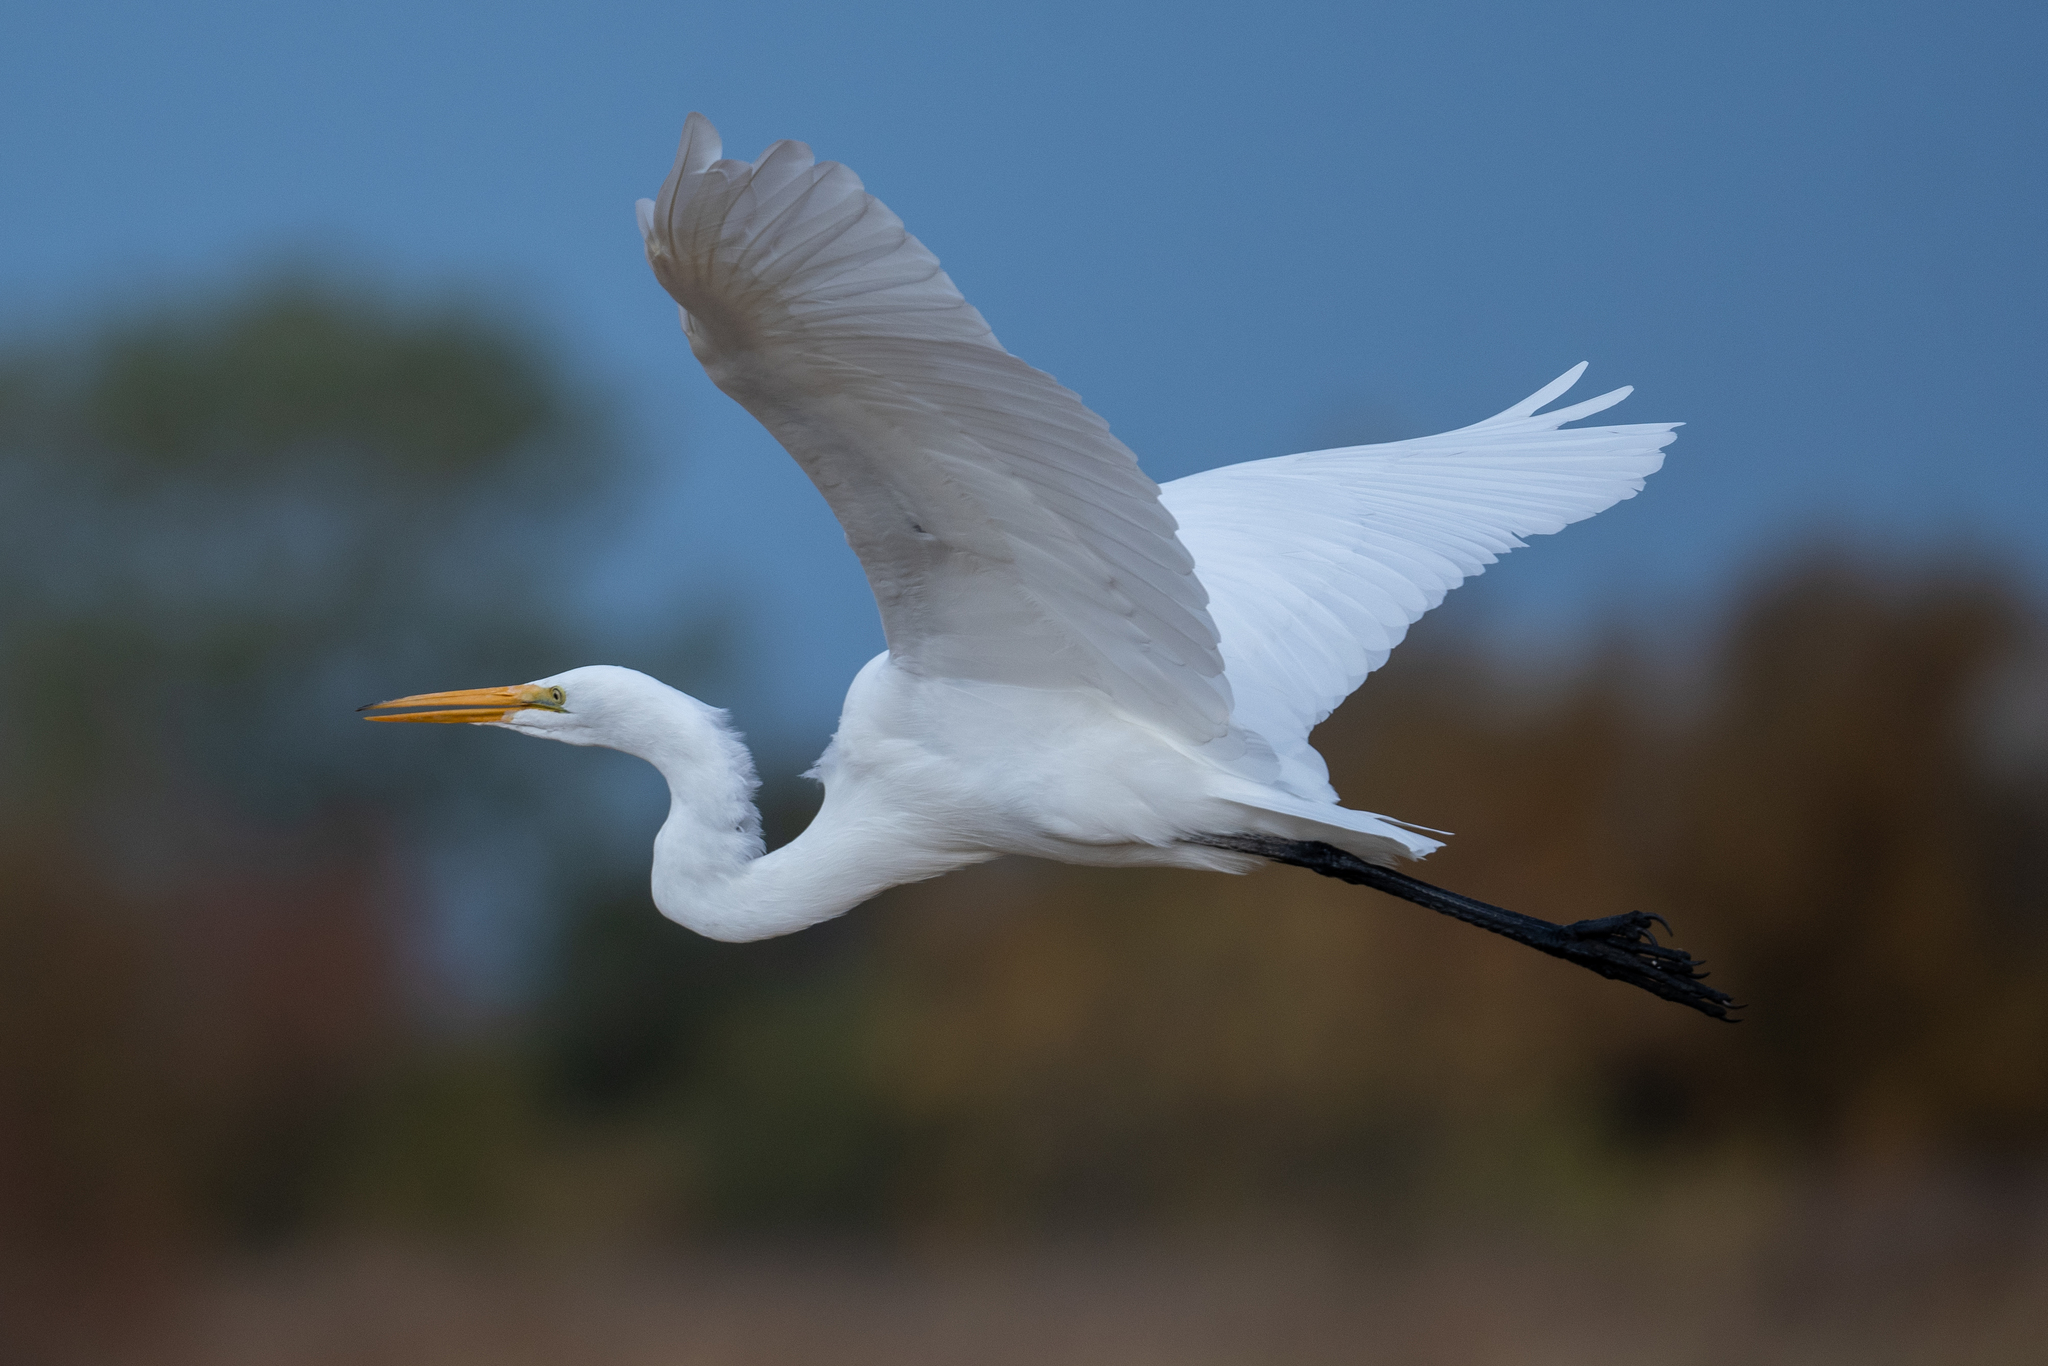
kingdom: Animalia
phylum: Chordata
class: Aves
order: Pelecaniformes
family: Ardeidae
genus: Ardea
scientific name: Ardea alba
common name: Great egret
